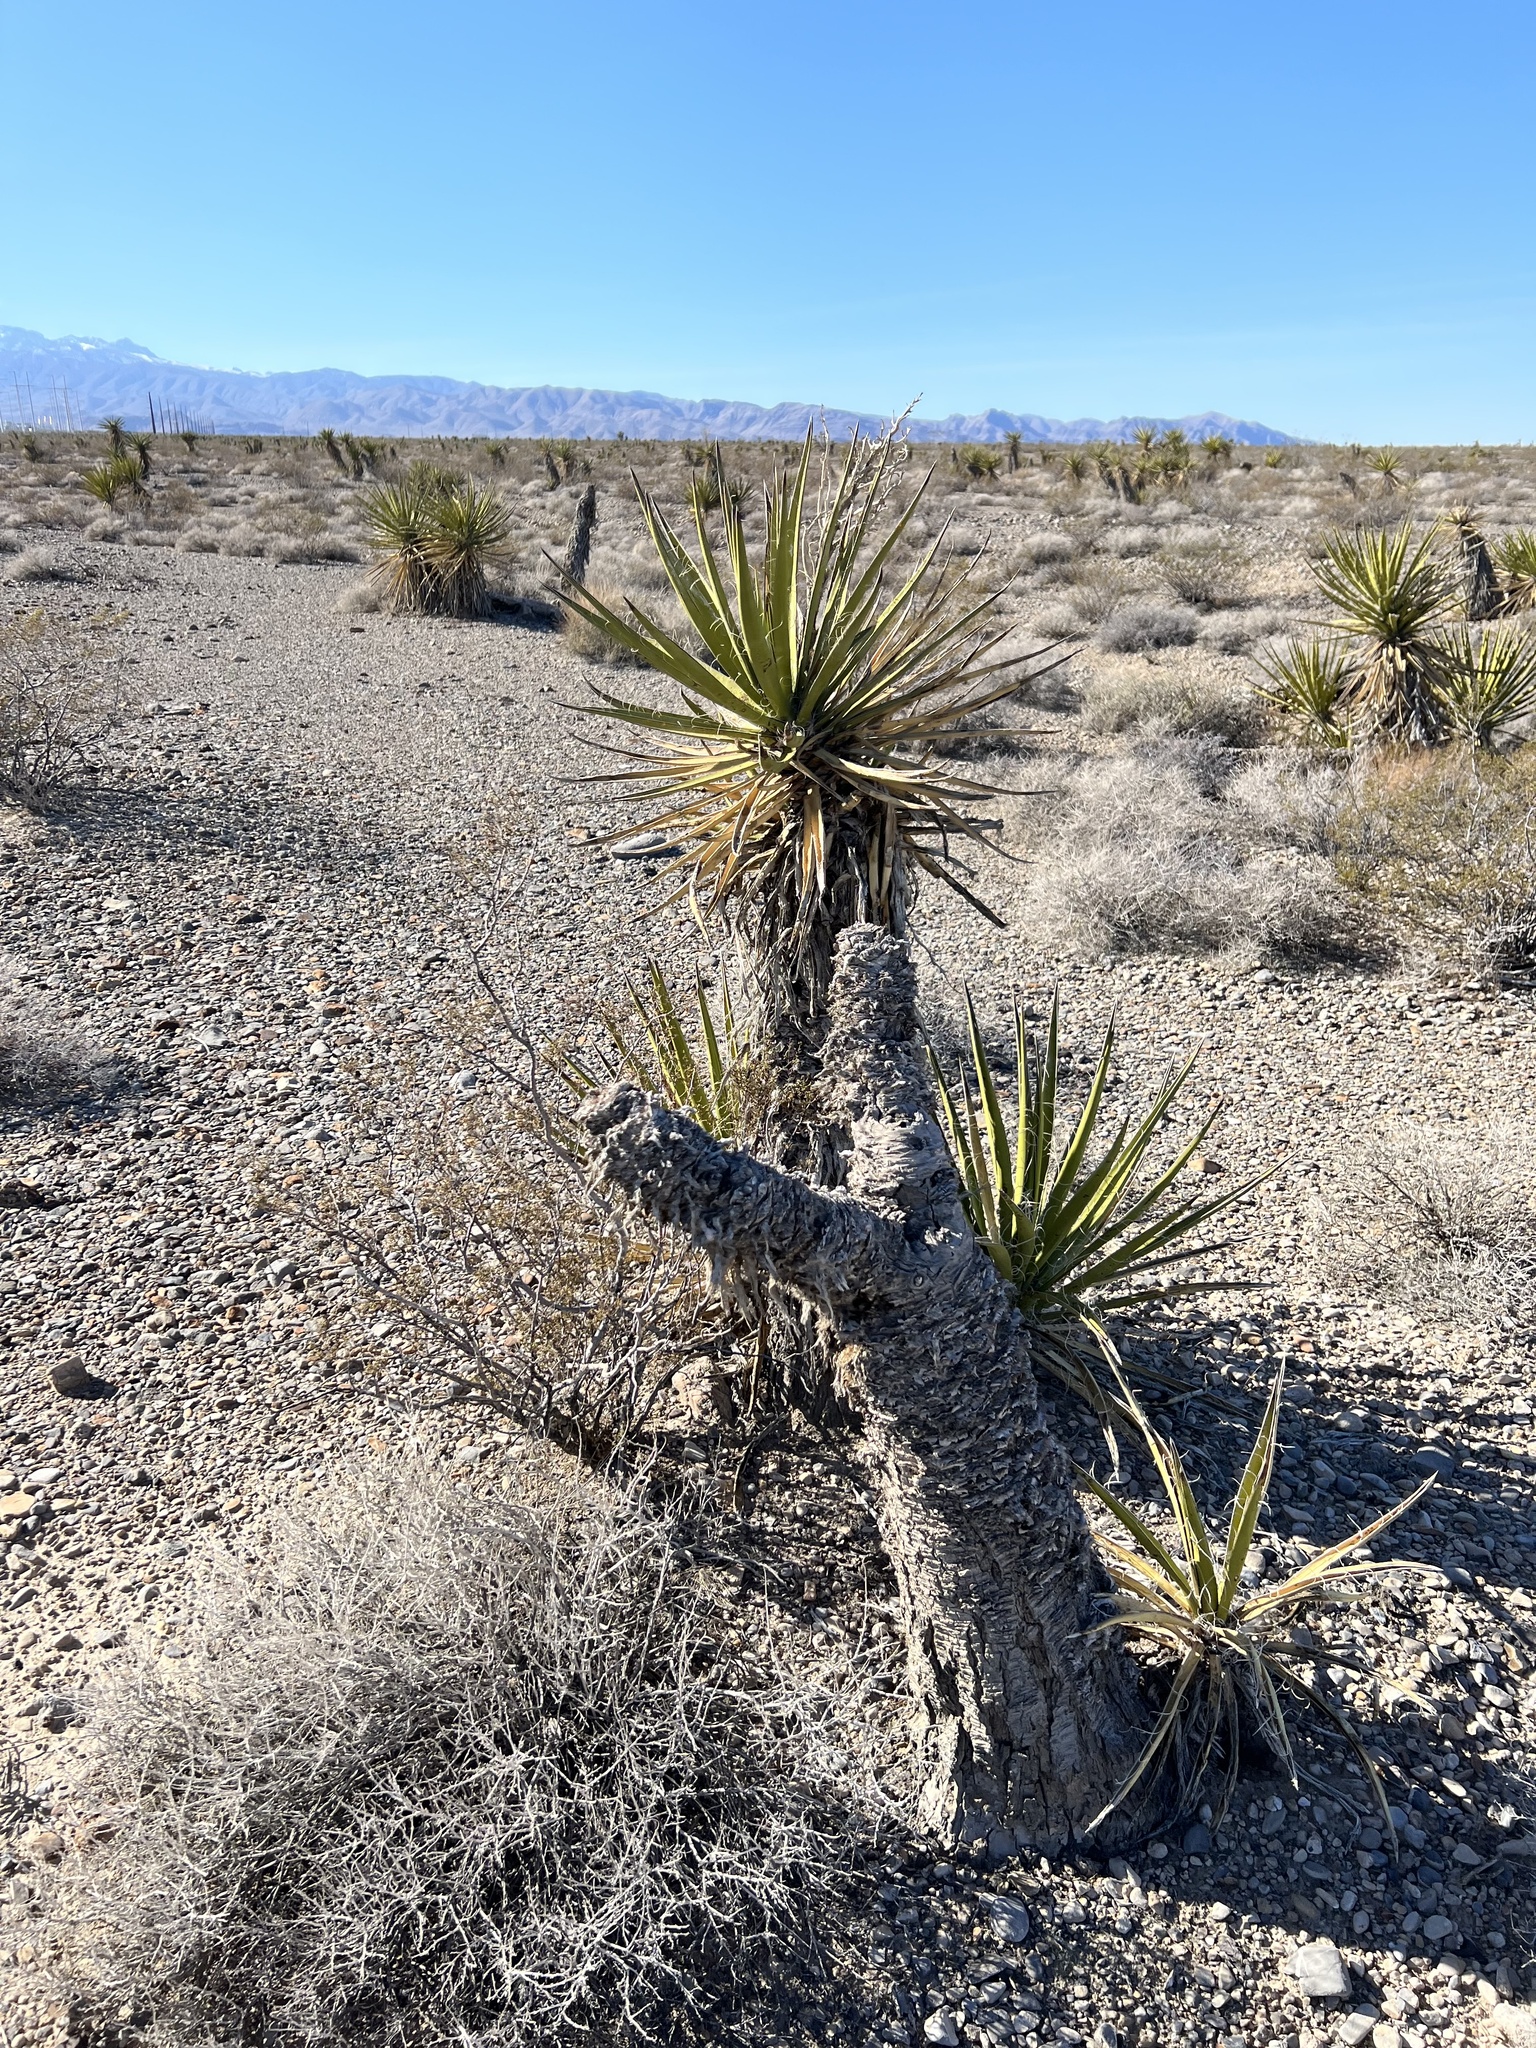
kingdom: Plantae
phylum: Tracheophyta
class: Liliopsida
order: Asparagales
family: Asparagaceae
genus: Yucca
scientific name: Yucca schidigera
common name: Mojave yucca
